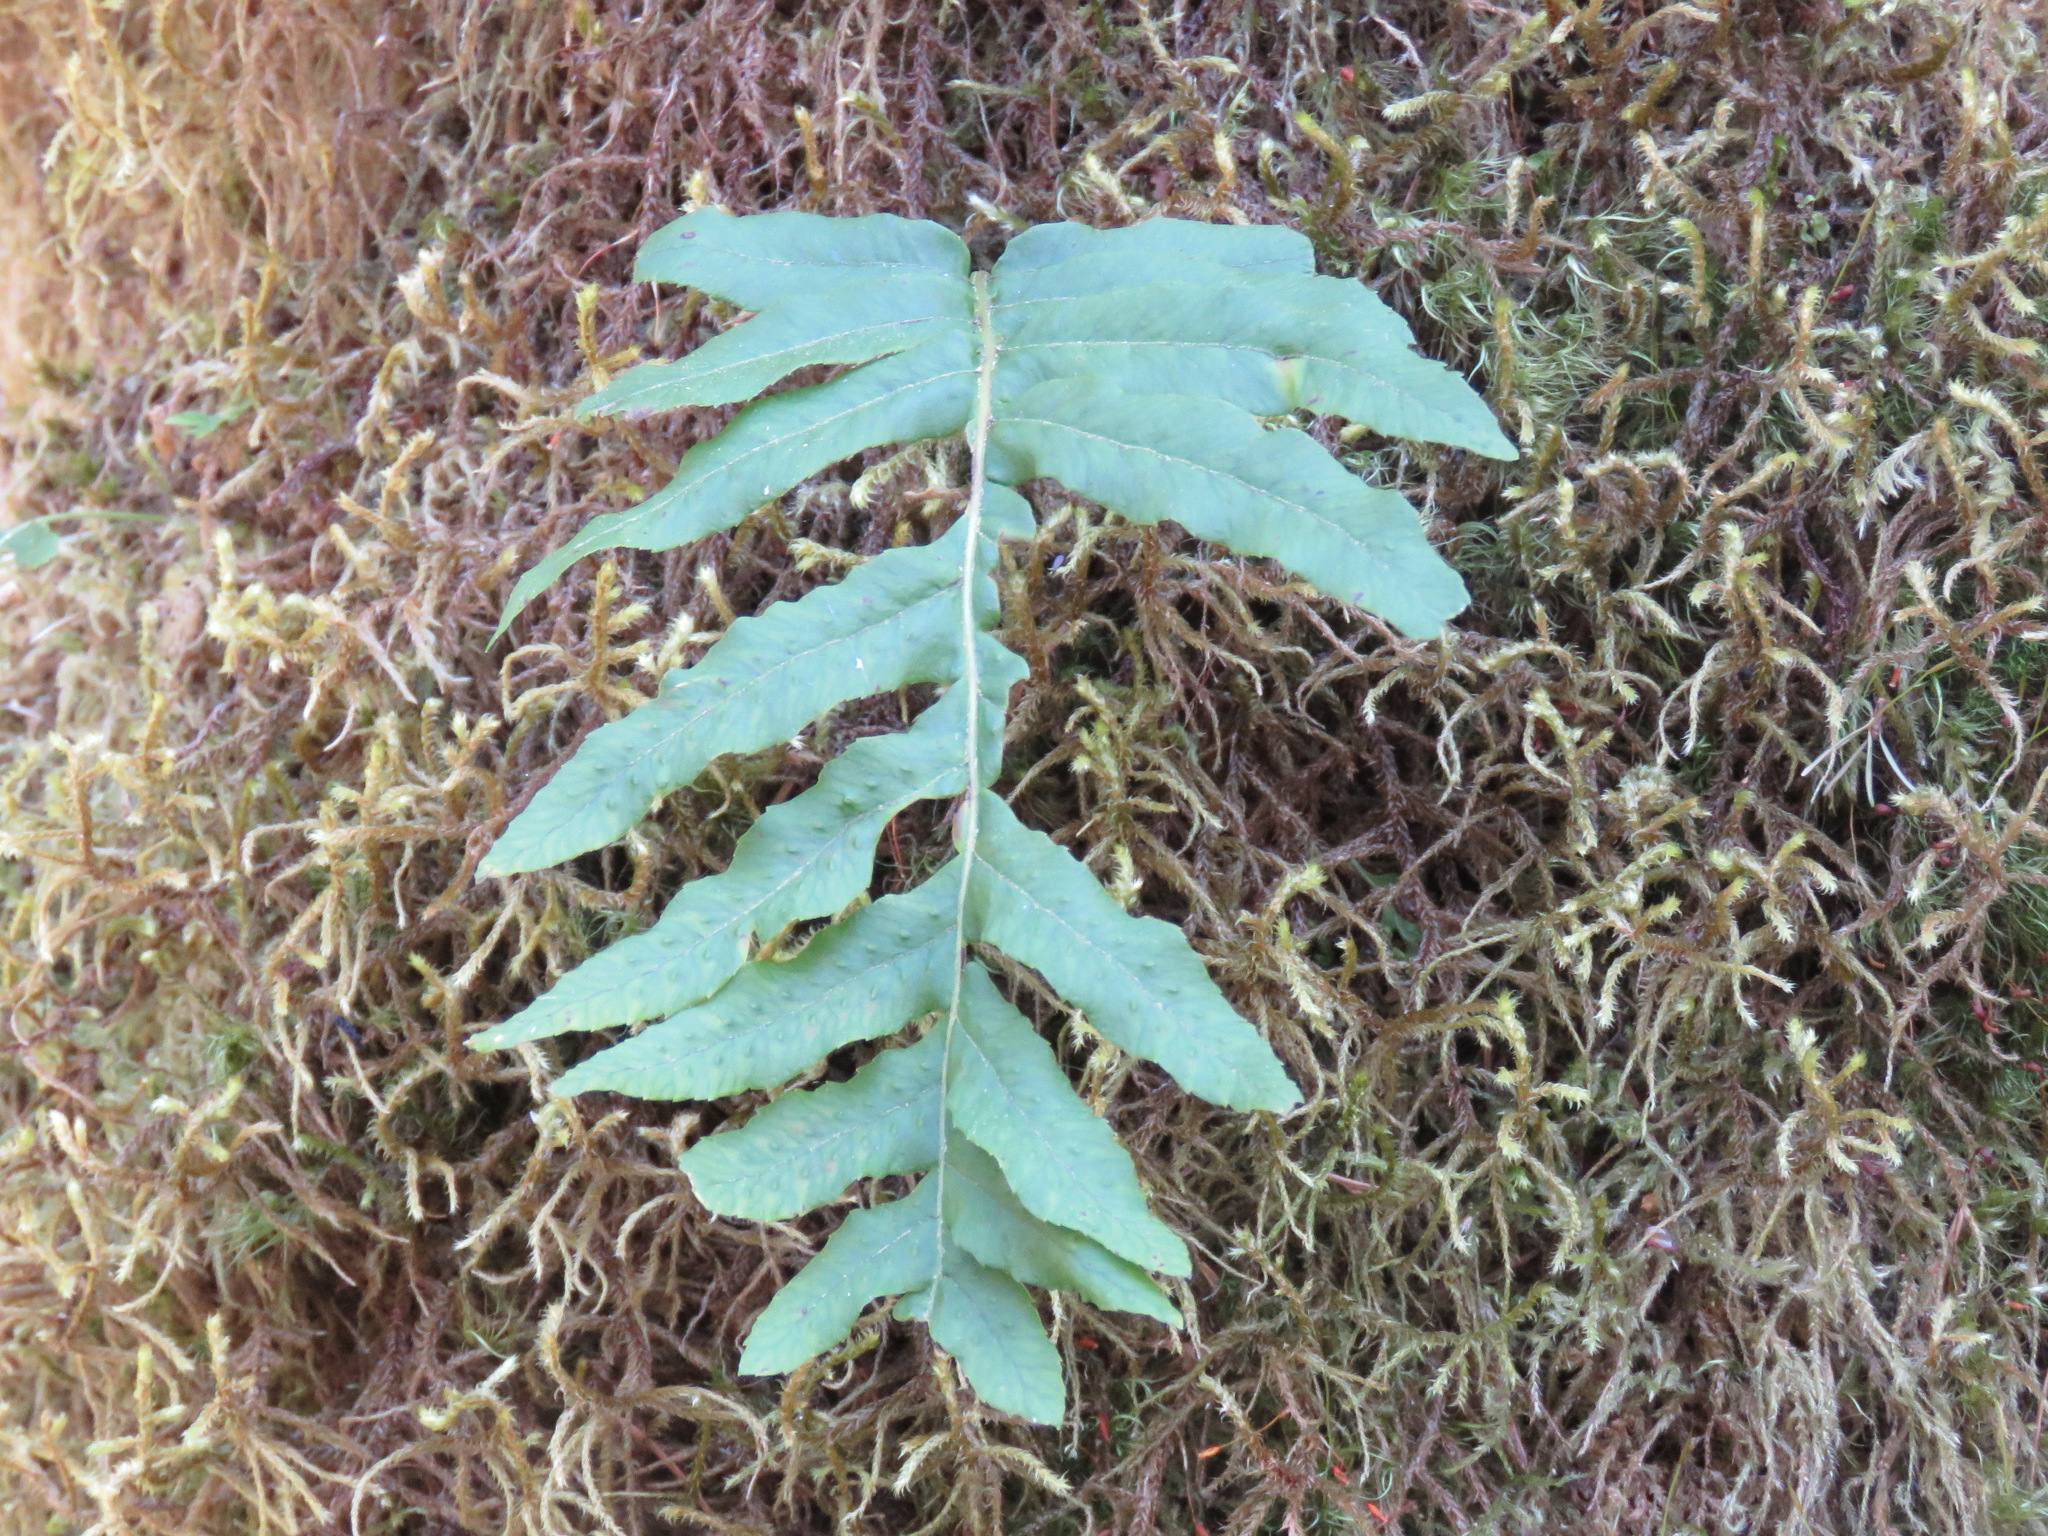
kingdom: Plantae
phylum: Tracheophyta
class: Polypodiopsida
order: Polypodiales
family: Polypodiaceae
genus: Polypodium
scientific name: Polypodium glycyrrhiza
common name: Licorice fern
